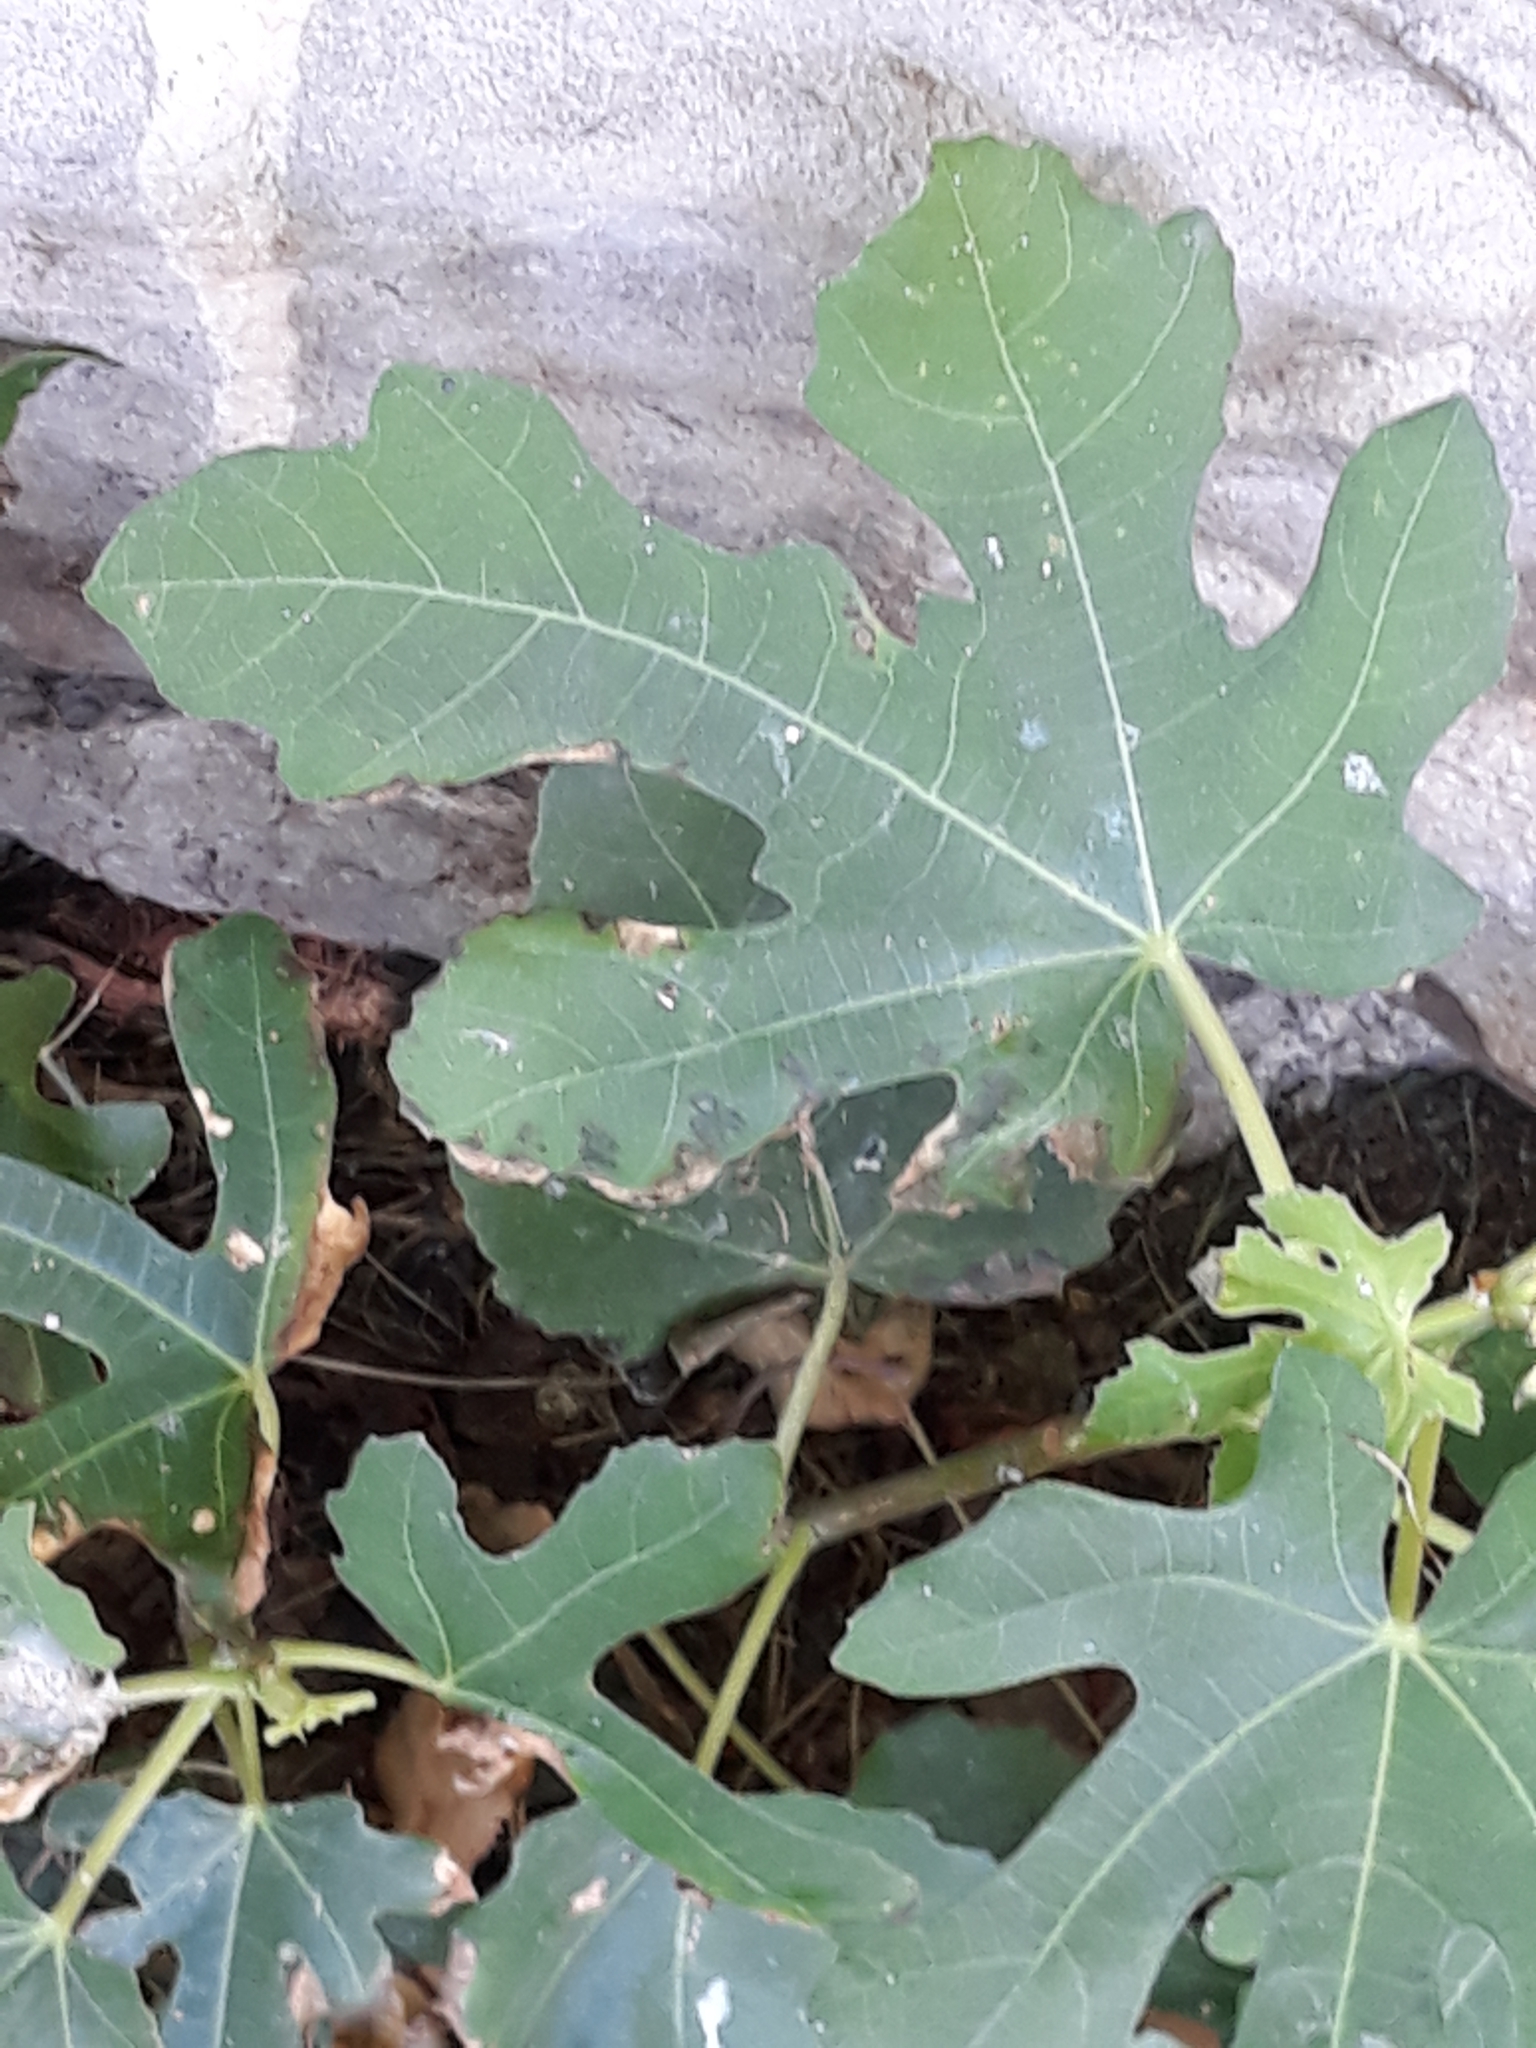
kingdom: Plantae
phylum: Tracheophyta
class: Magnoliopsida
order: Rosales
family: Moraceae
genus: Ficus
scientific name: Ficus carica
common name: Fig
